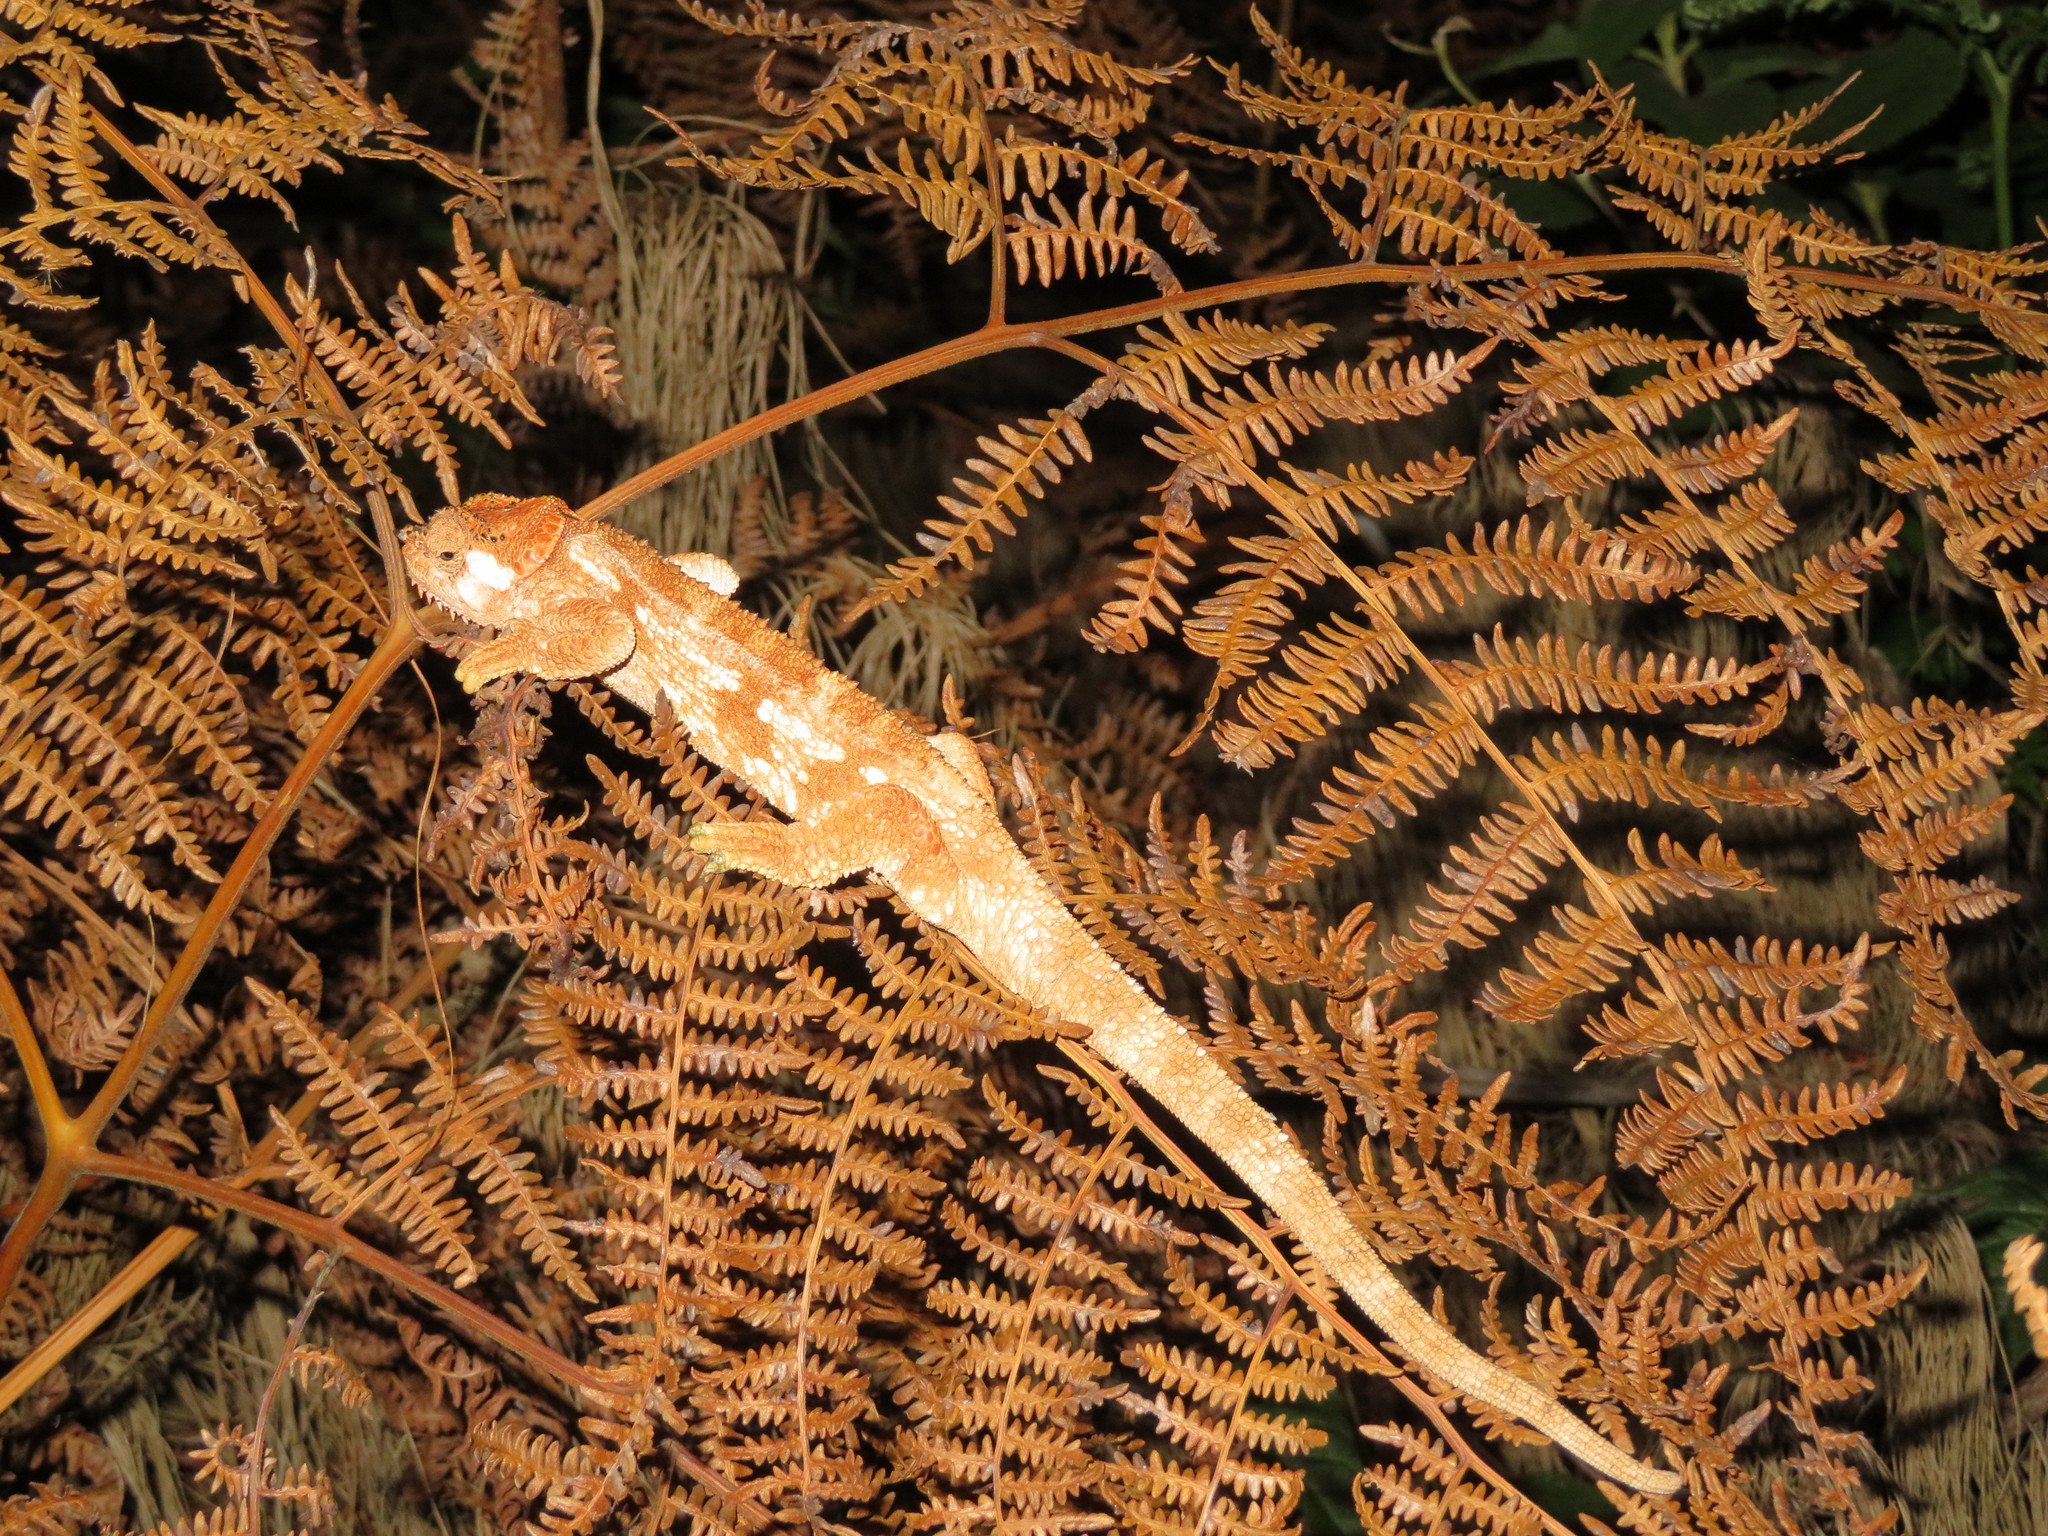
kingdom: Animalia
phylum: Chordata
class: Squamata
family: Chamaeleonidae
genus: Trioceros
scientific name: Trioceros tempeli
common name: Tanzania mountain chameleon
